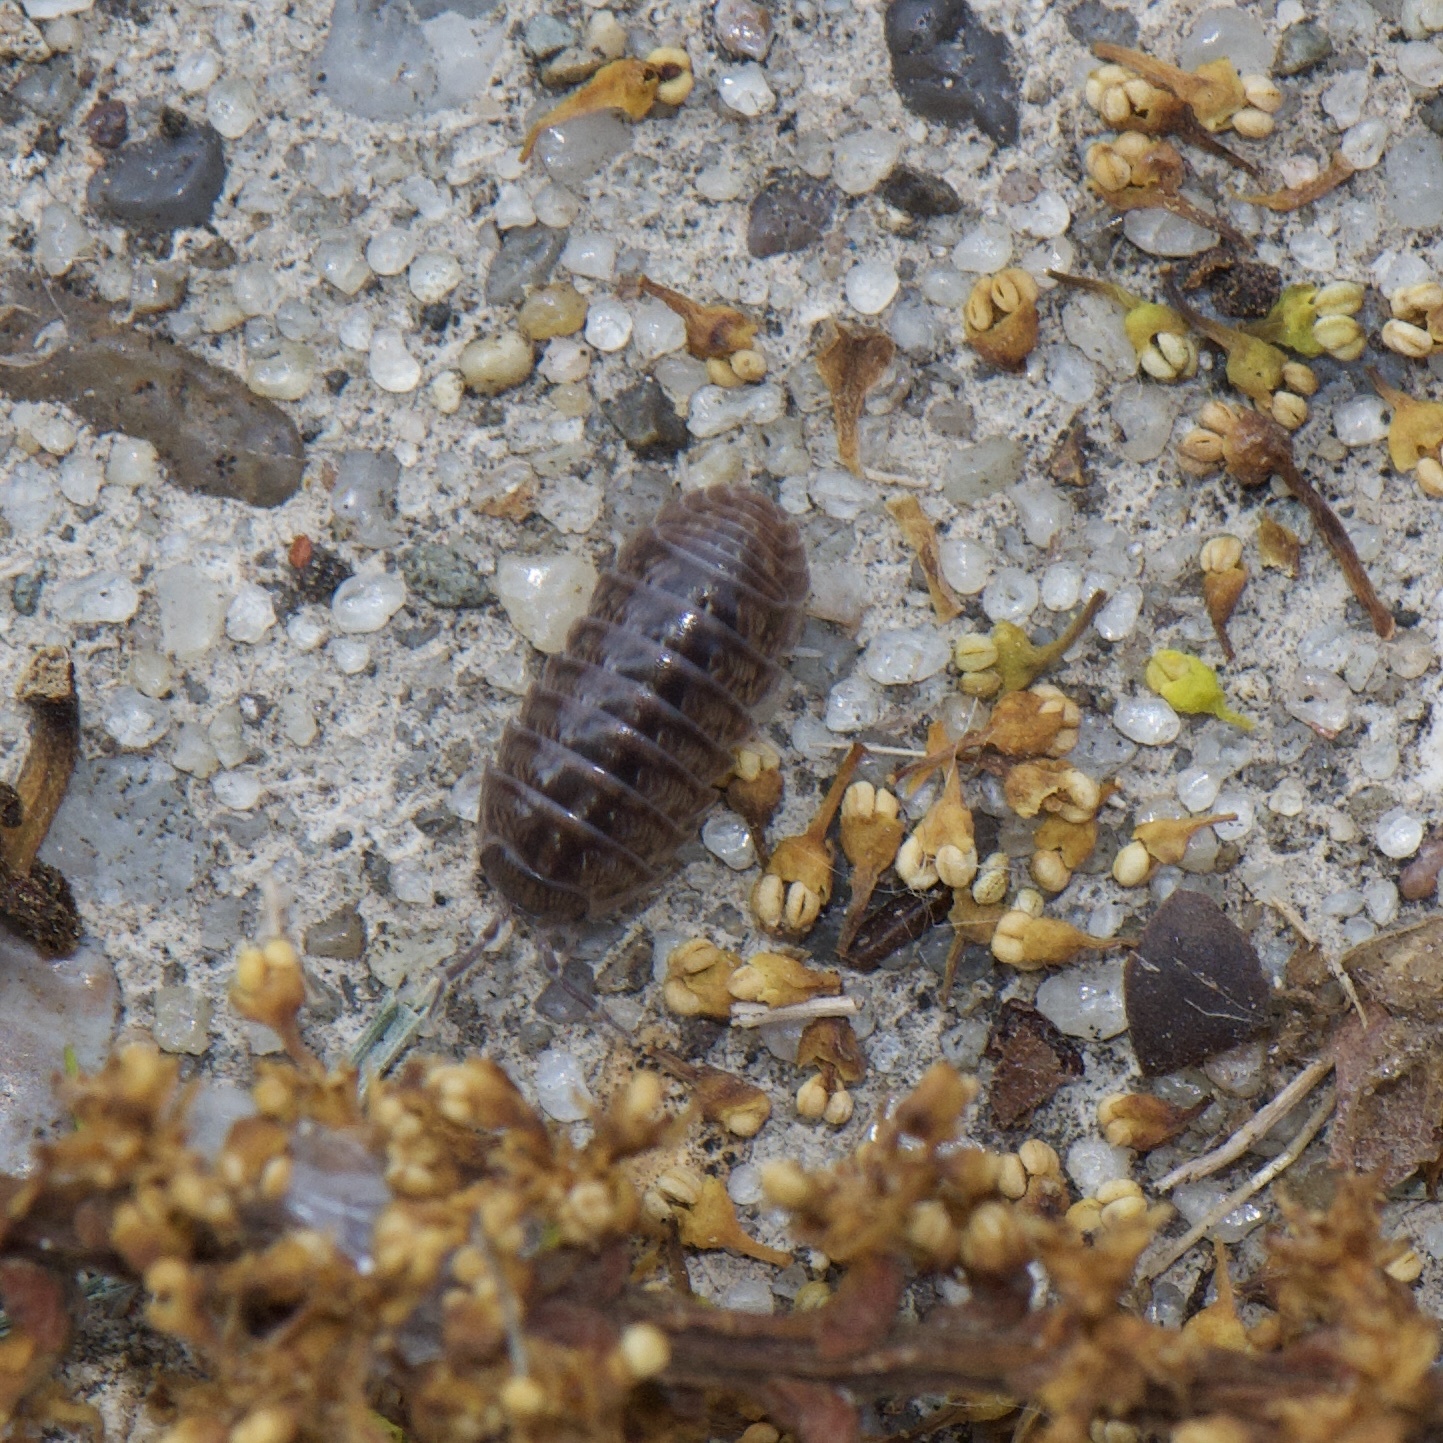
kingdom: Animalia
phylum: Arthropoda
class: Malacostraca
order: Isopoda
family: Armadillidiidae
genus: Armadillidium
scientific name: Armadillidium vulgare
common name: Common pill woodlouse
